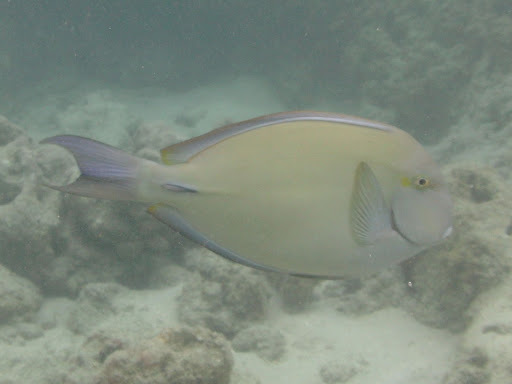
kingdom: Animalia
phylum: Chordata
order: Perciformes
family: Acanthuridae
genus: Acanthurus
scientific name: Acanthurus blochii
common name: Blue-banded pualu
